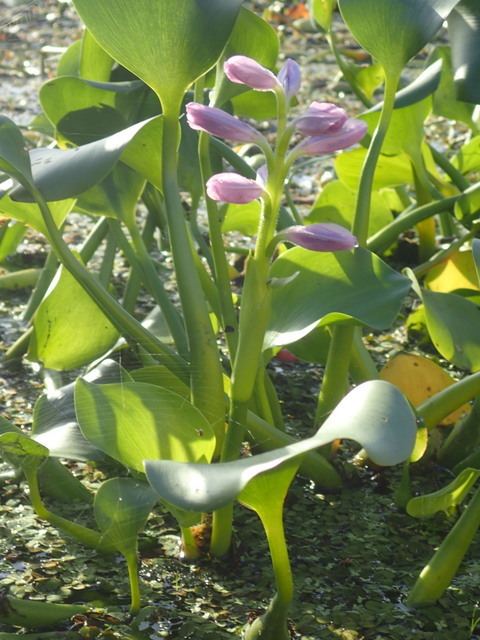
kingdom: Plantae
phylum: Tracheophyta
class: Liliopsida
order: Commelinales
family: Pontederiaceae
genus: Pontederia
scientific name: Pontederia crassipes
